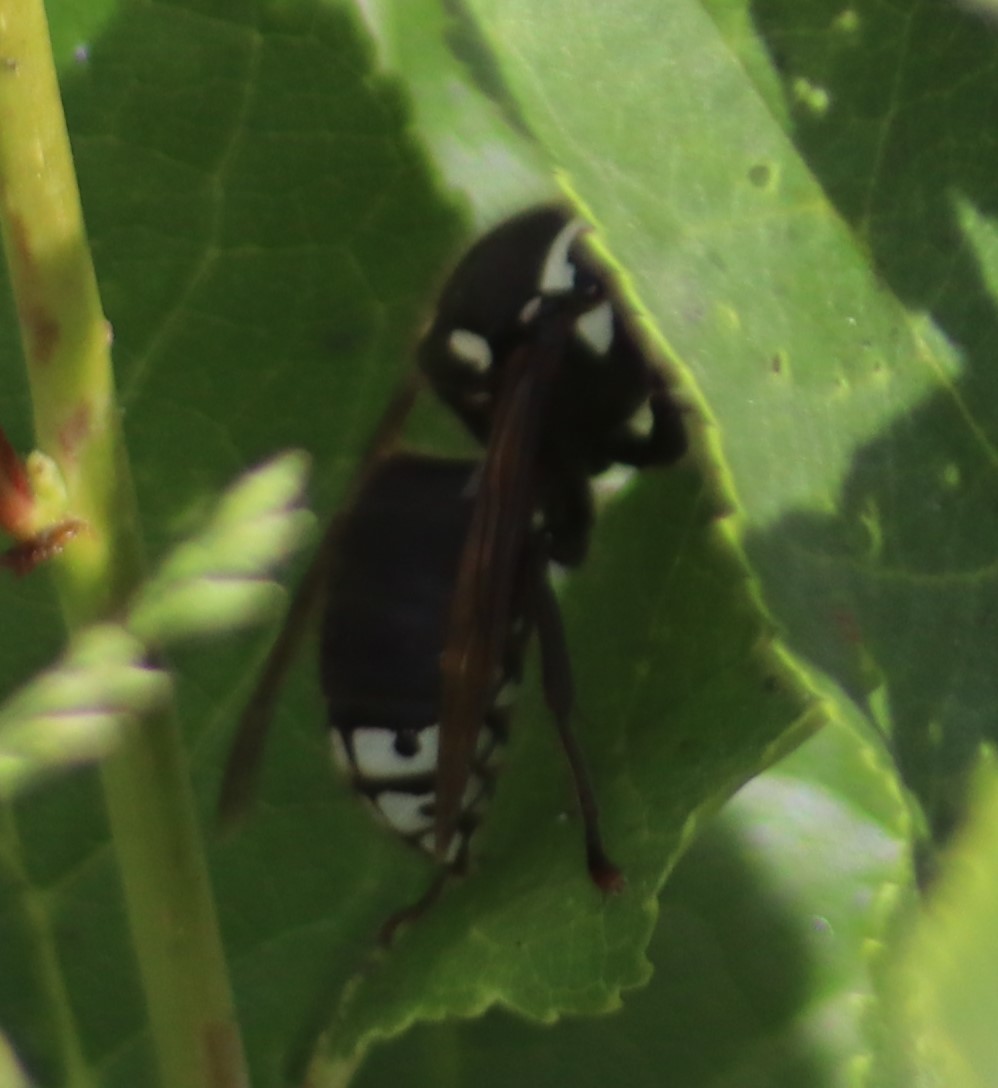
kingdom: Animalia
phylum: Arthropoda
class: Insecta
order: Hymenoptera
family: Vespidae
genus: Dolichovespula
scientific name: Dolichovespula maculata
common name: Bald-faced hornet
